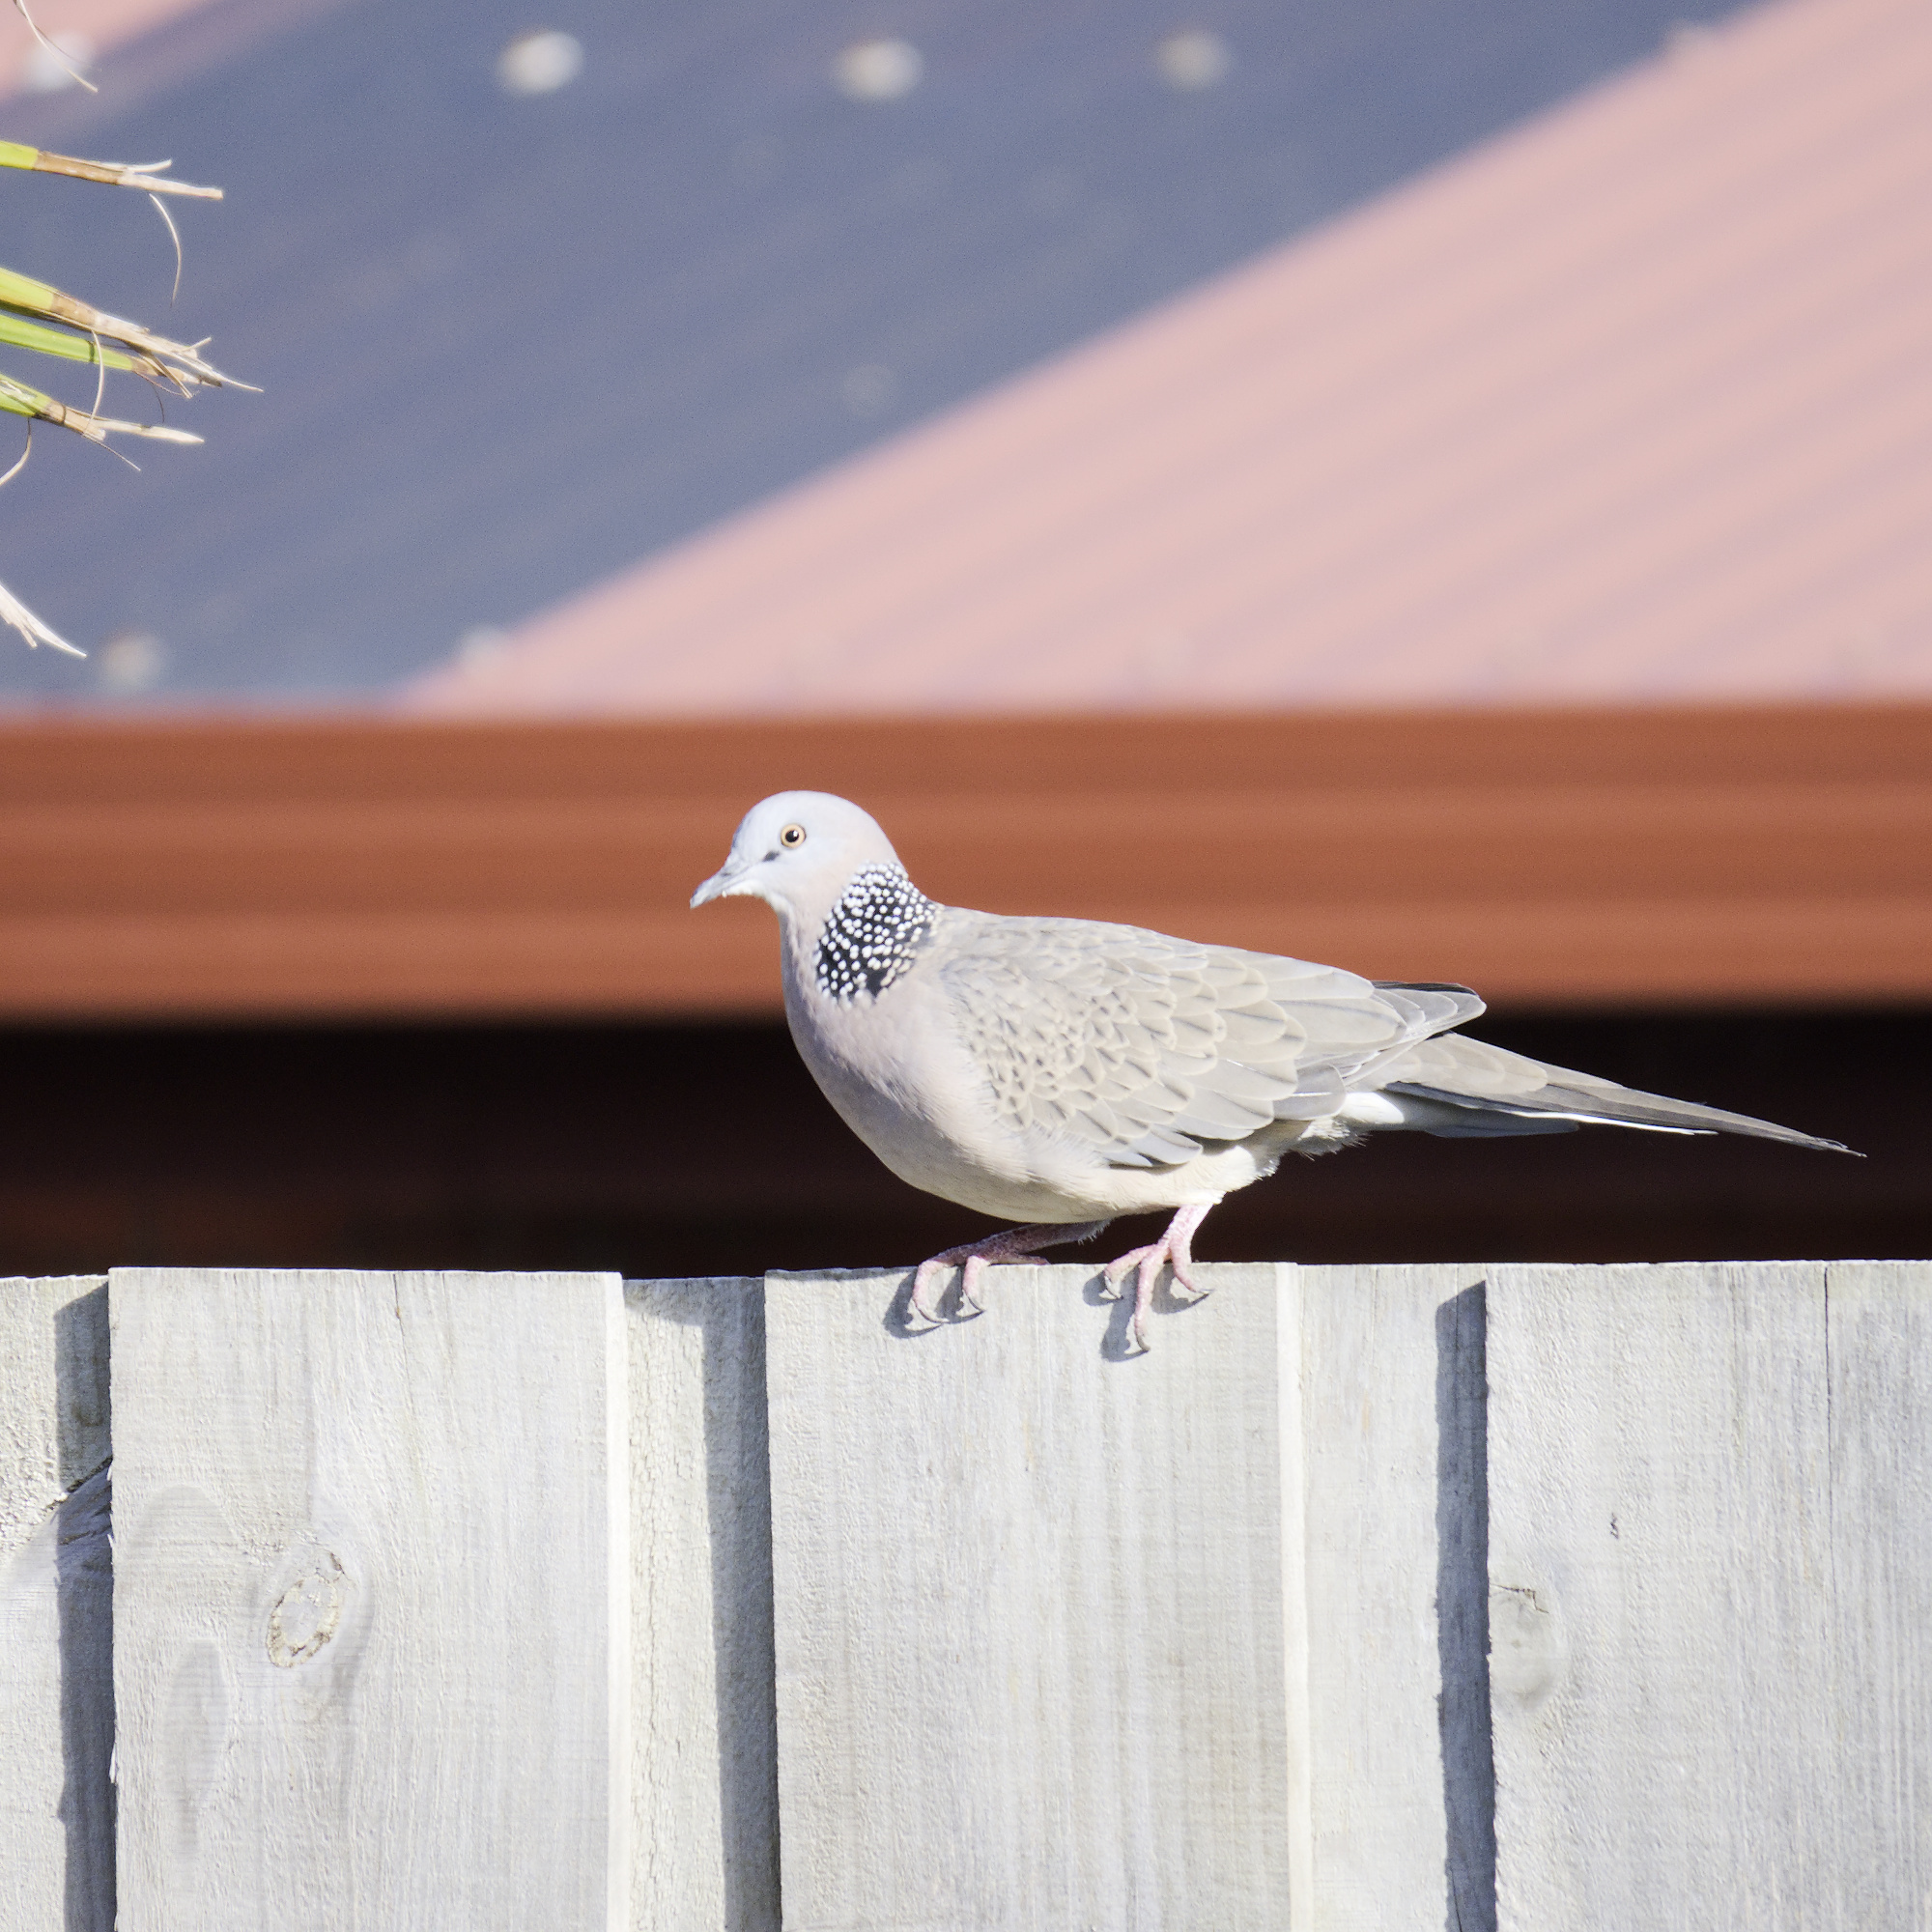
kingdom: Animalia
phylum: Chordata
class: Aves
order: Columbiformes
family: Columbidae
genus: Spilopelia
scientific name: Spilopelia chinensis
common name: Spotted dove
